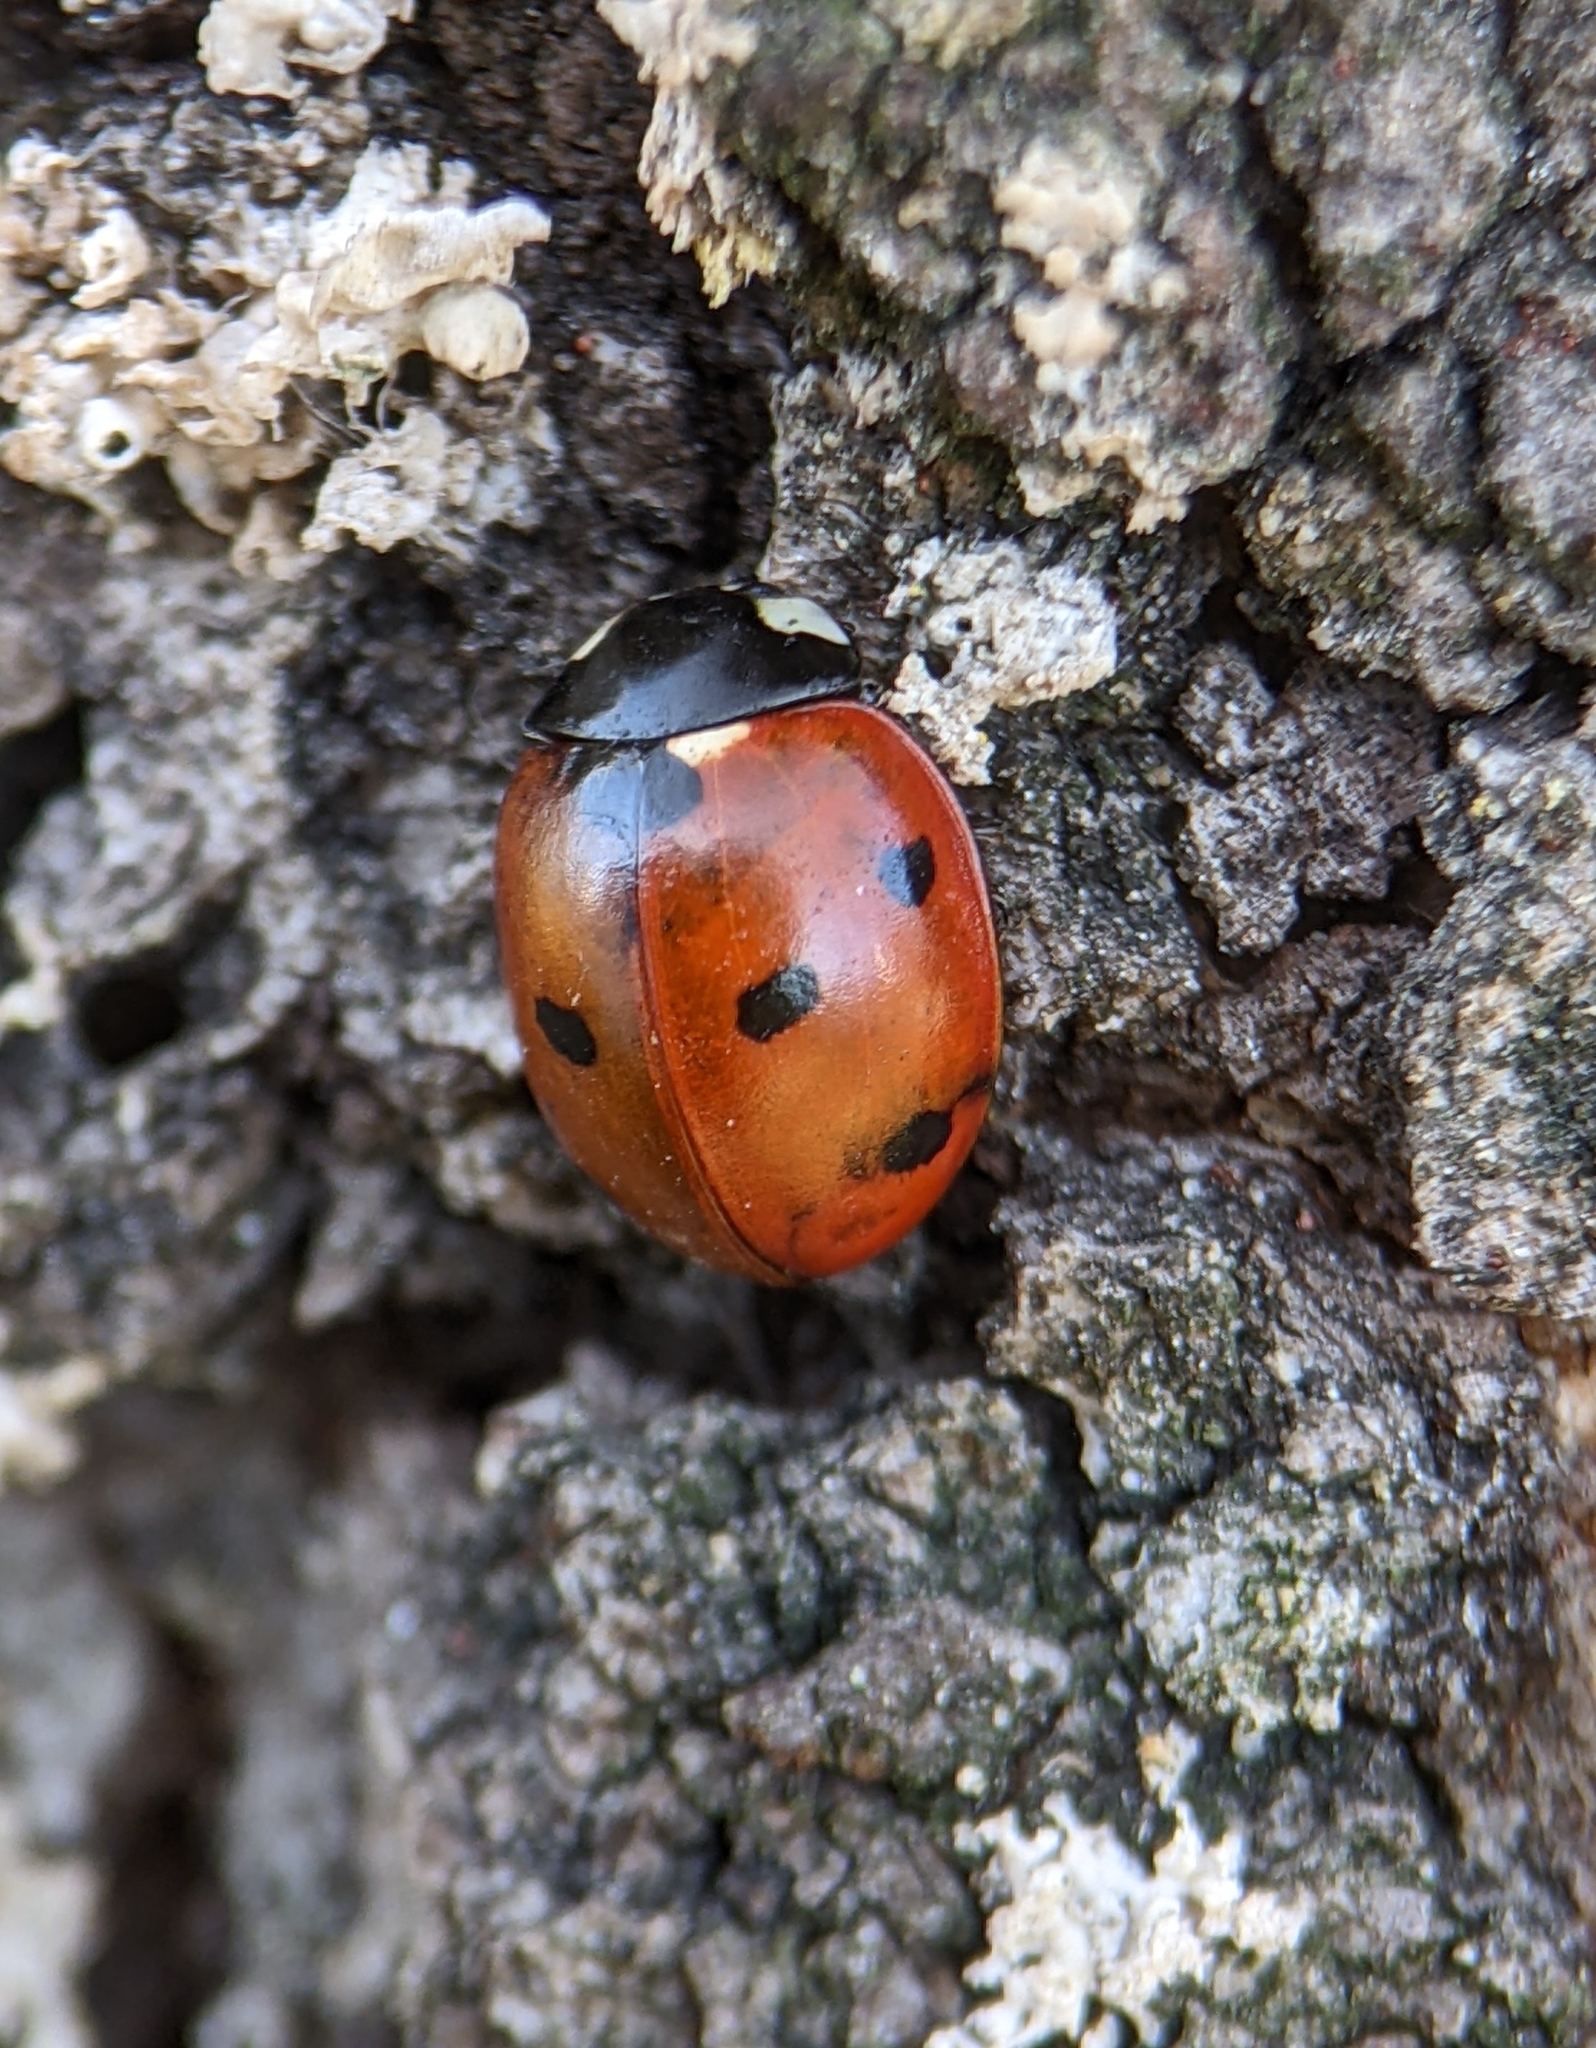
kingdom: Animalia
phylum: Arthropoda
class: Insecta
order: Coleoptera
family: Coccinellidae
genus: Coccinella
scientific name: Coccinella septempunctata
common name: Sevenspotted lady beetle
